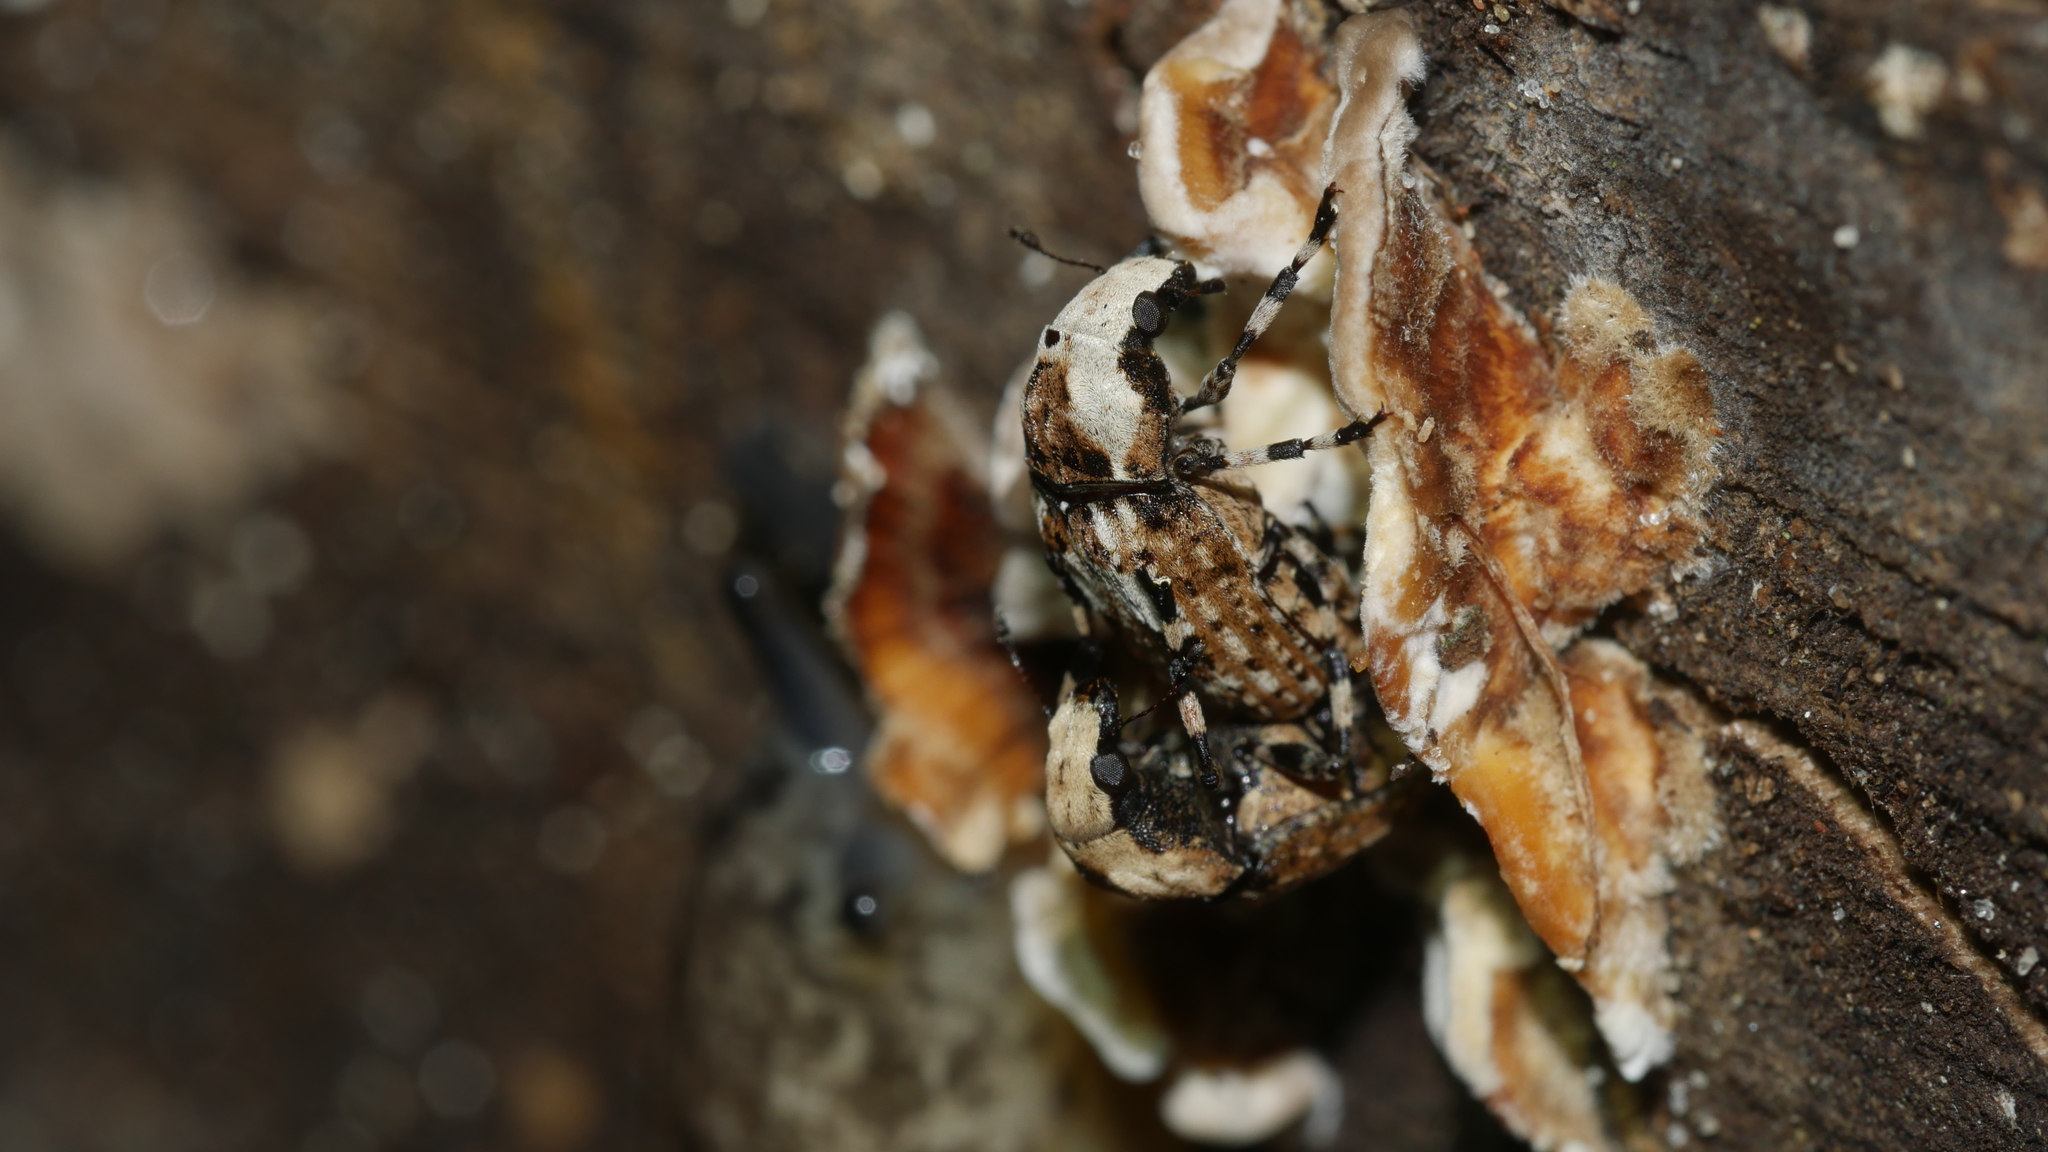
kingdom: Animalia
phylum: Arthropoda
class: Insecta
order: Coleoptera
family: Anthribidae
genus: Euparius
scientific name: Euparius marmoreus
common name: Marbled fungus weevil
